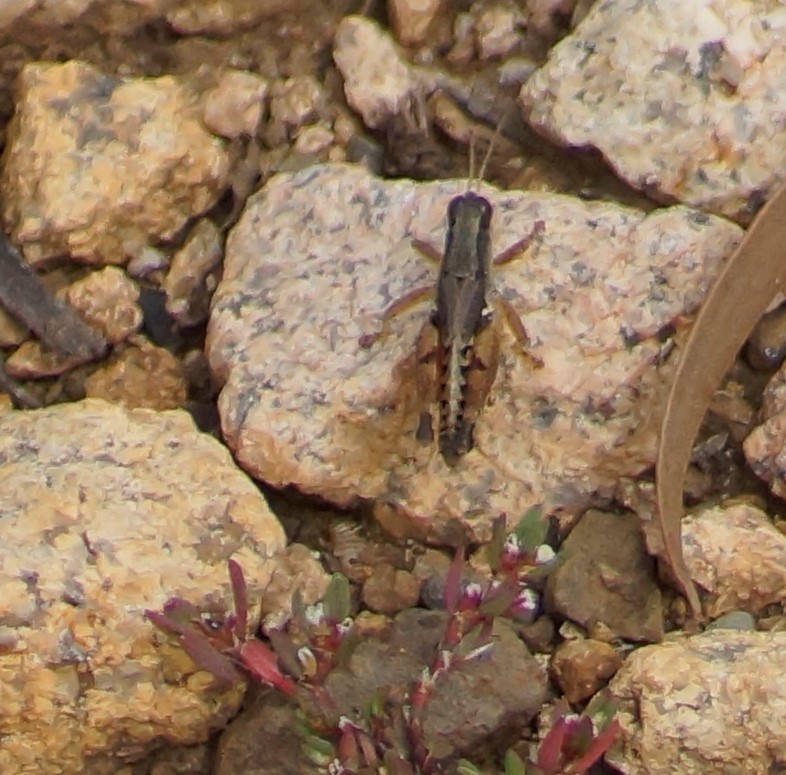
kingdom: Animalia
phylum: Arthropoda
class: Insecta
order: Orthoptera
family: Acrididae
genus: Phaulacridium
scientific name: Phaulacridium vittatum
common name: Wingless grasshopper
